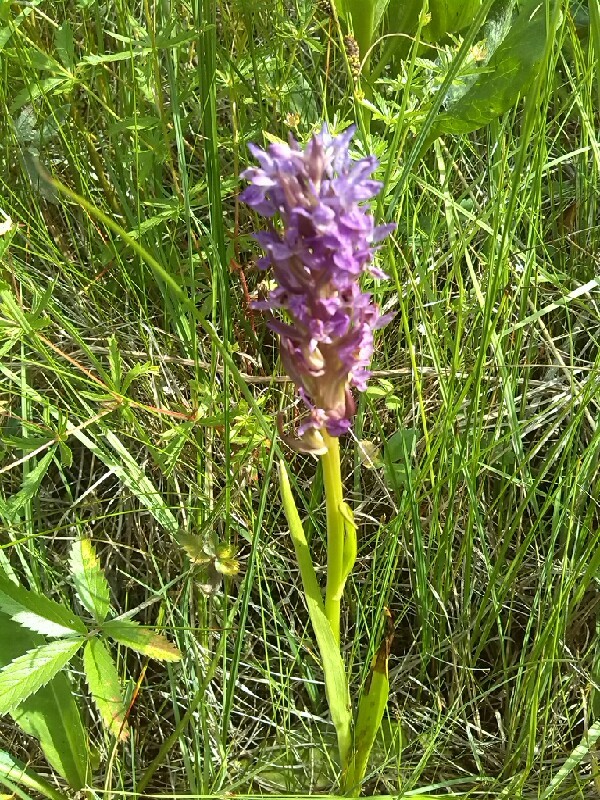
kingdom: Plantae
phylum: Tracheophyta
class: Liliopsida
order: Asparagales
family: Orchidaceae
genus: Dactylorhiza
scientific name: Dactylorhiza incarnata
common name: Early marsh-orchid
